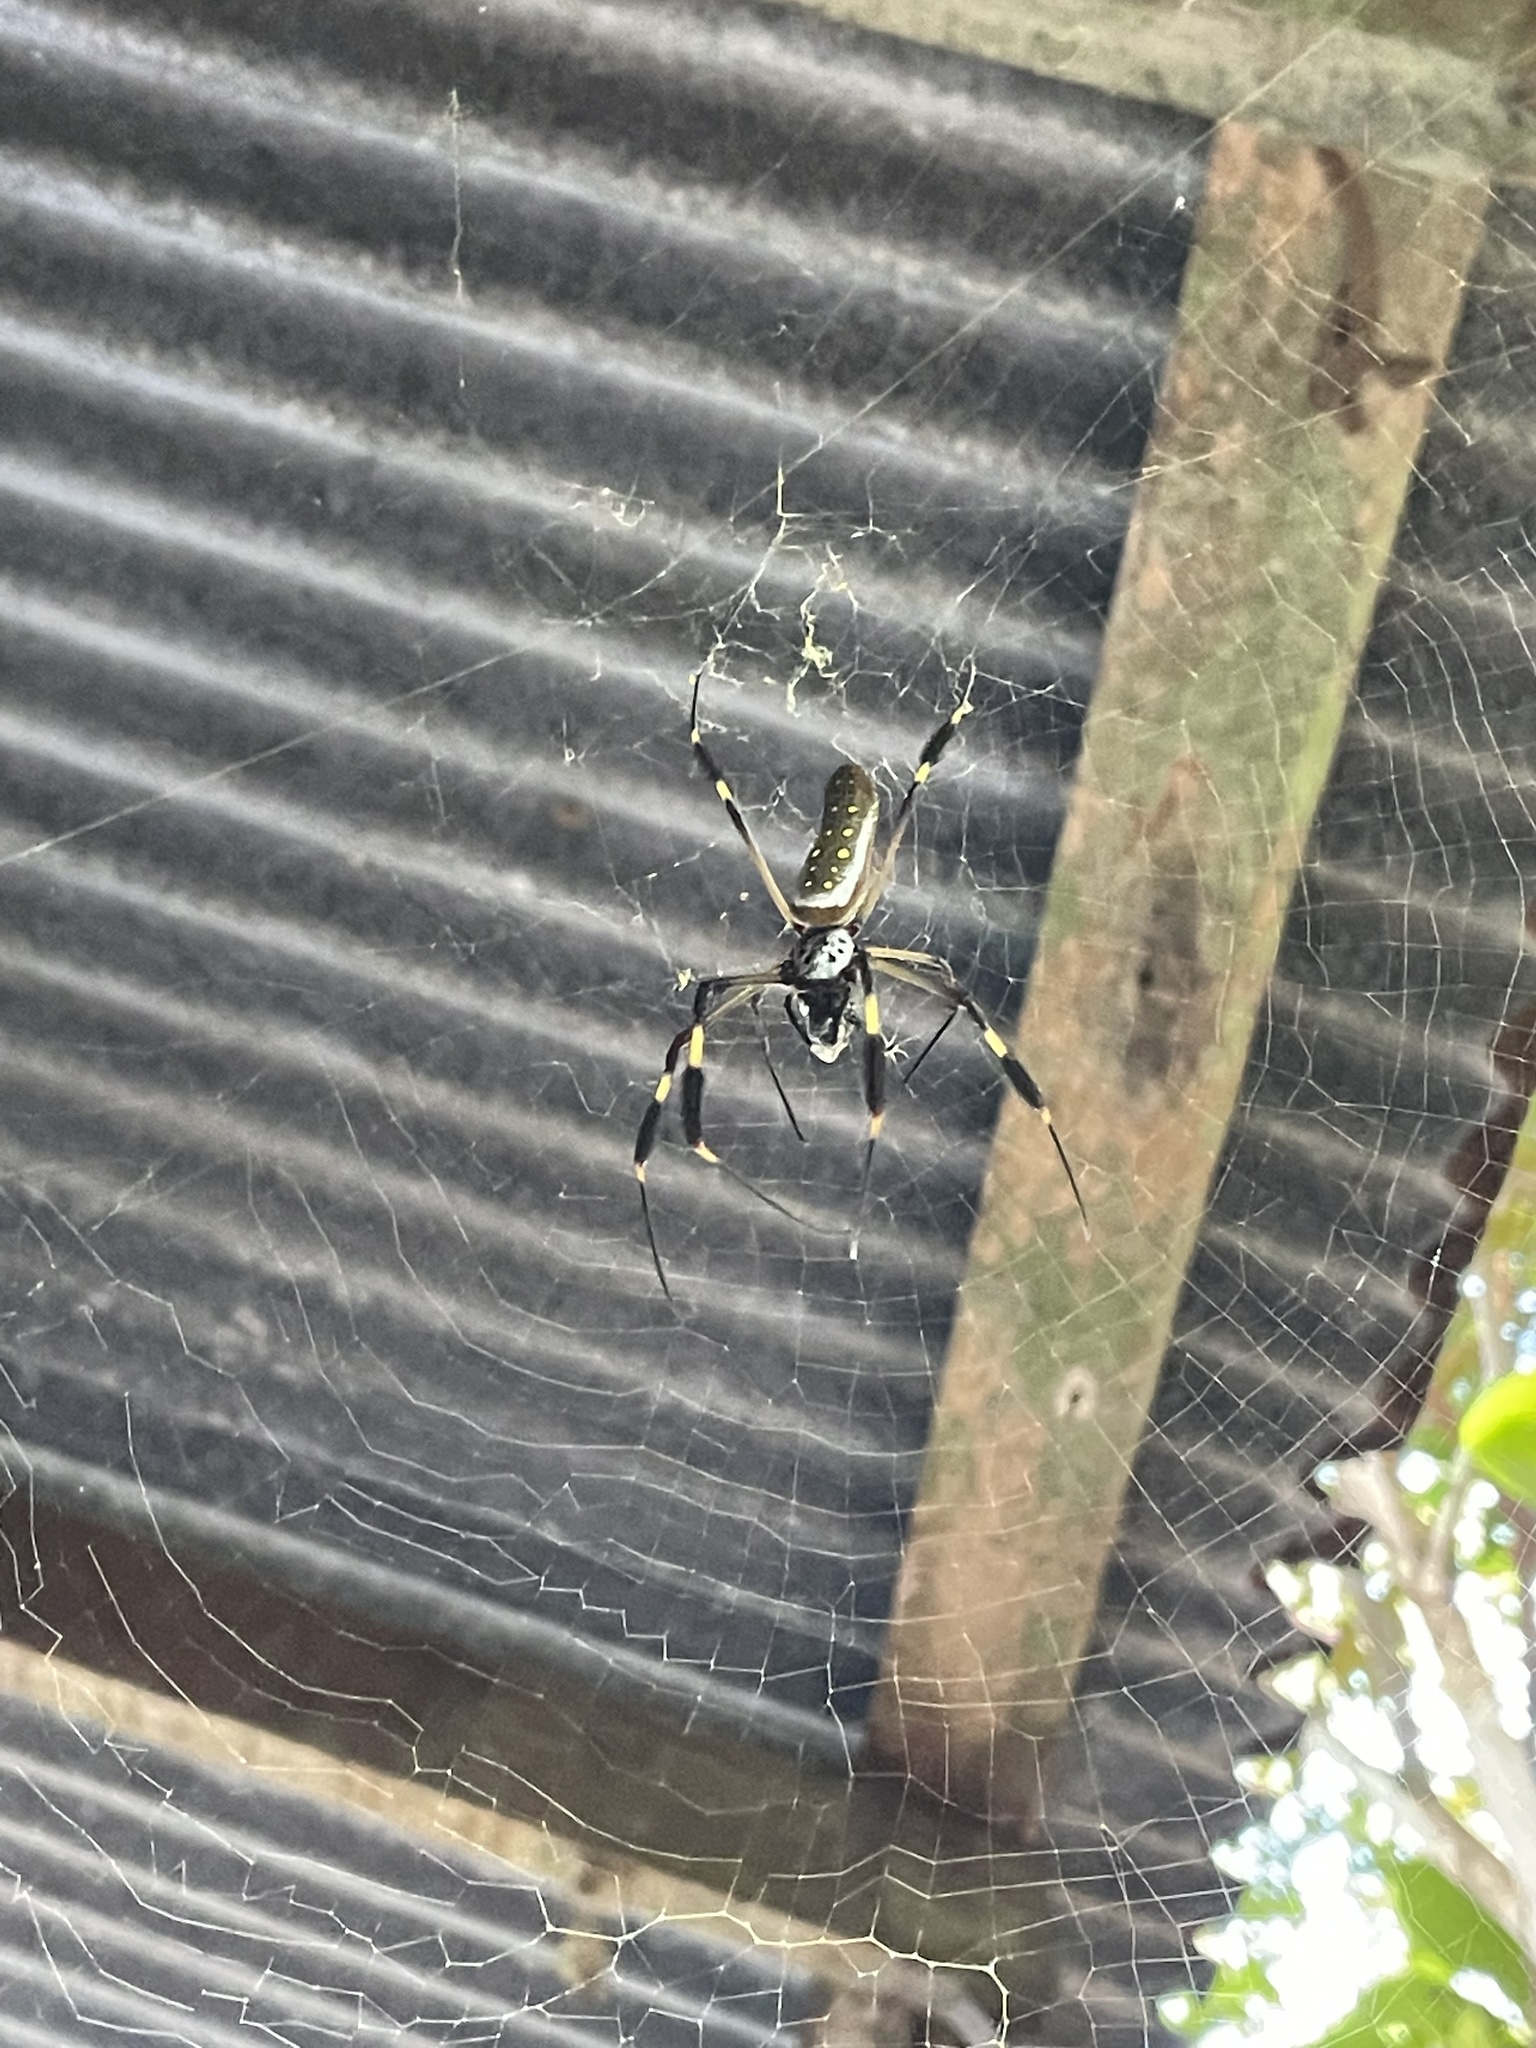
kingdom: Animalia
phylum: Arthropoda
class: Arachnida
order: Araneae
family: Araneidae
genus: Trichonephila
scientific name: Trichonephila clavipes
